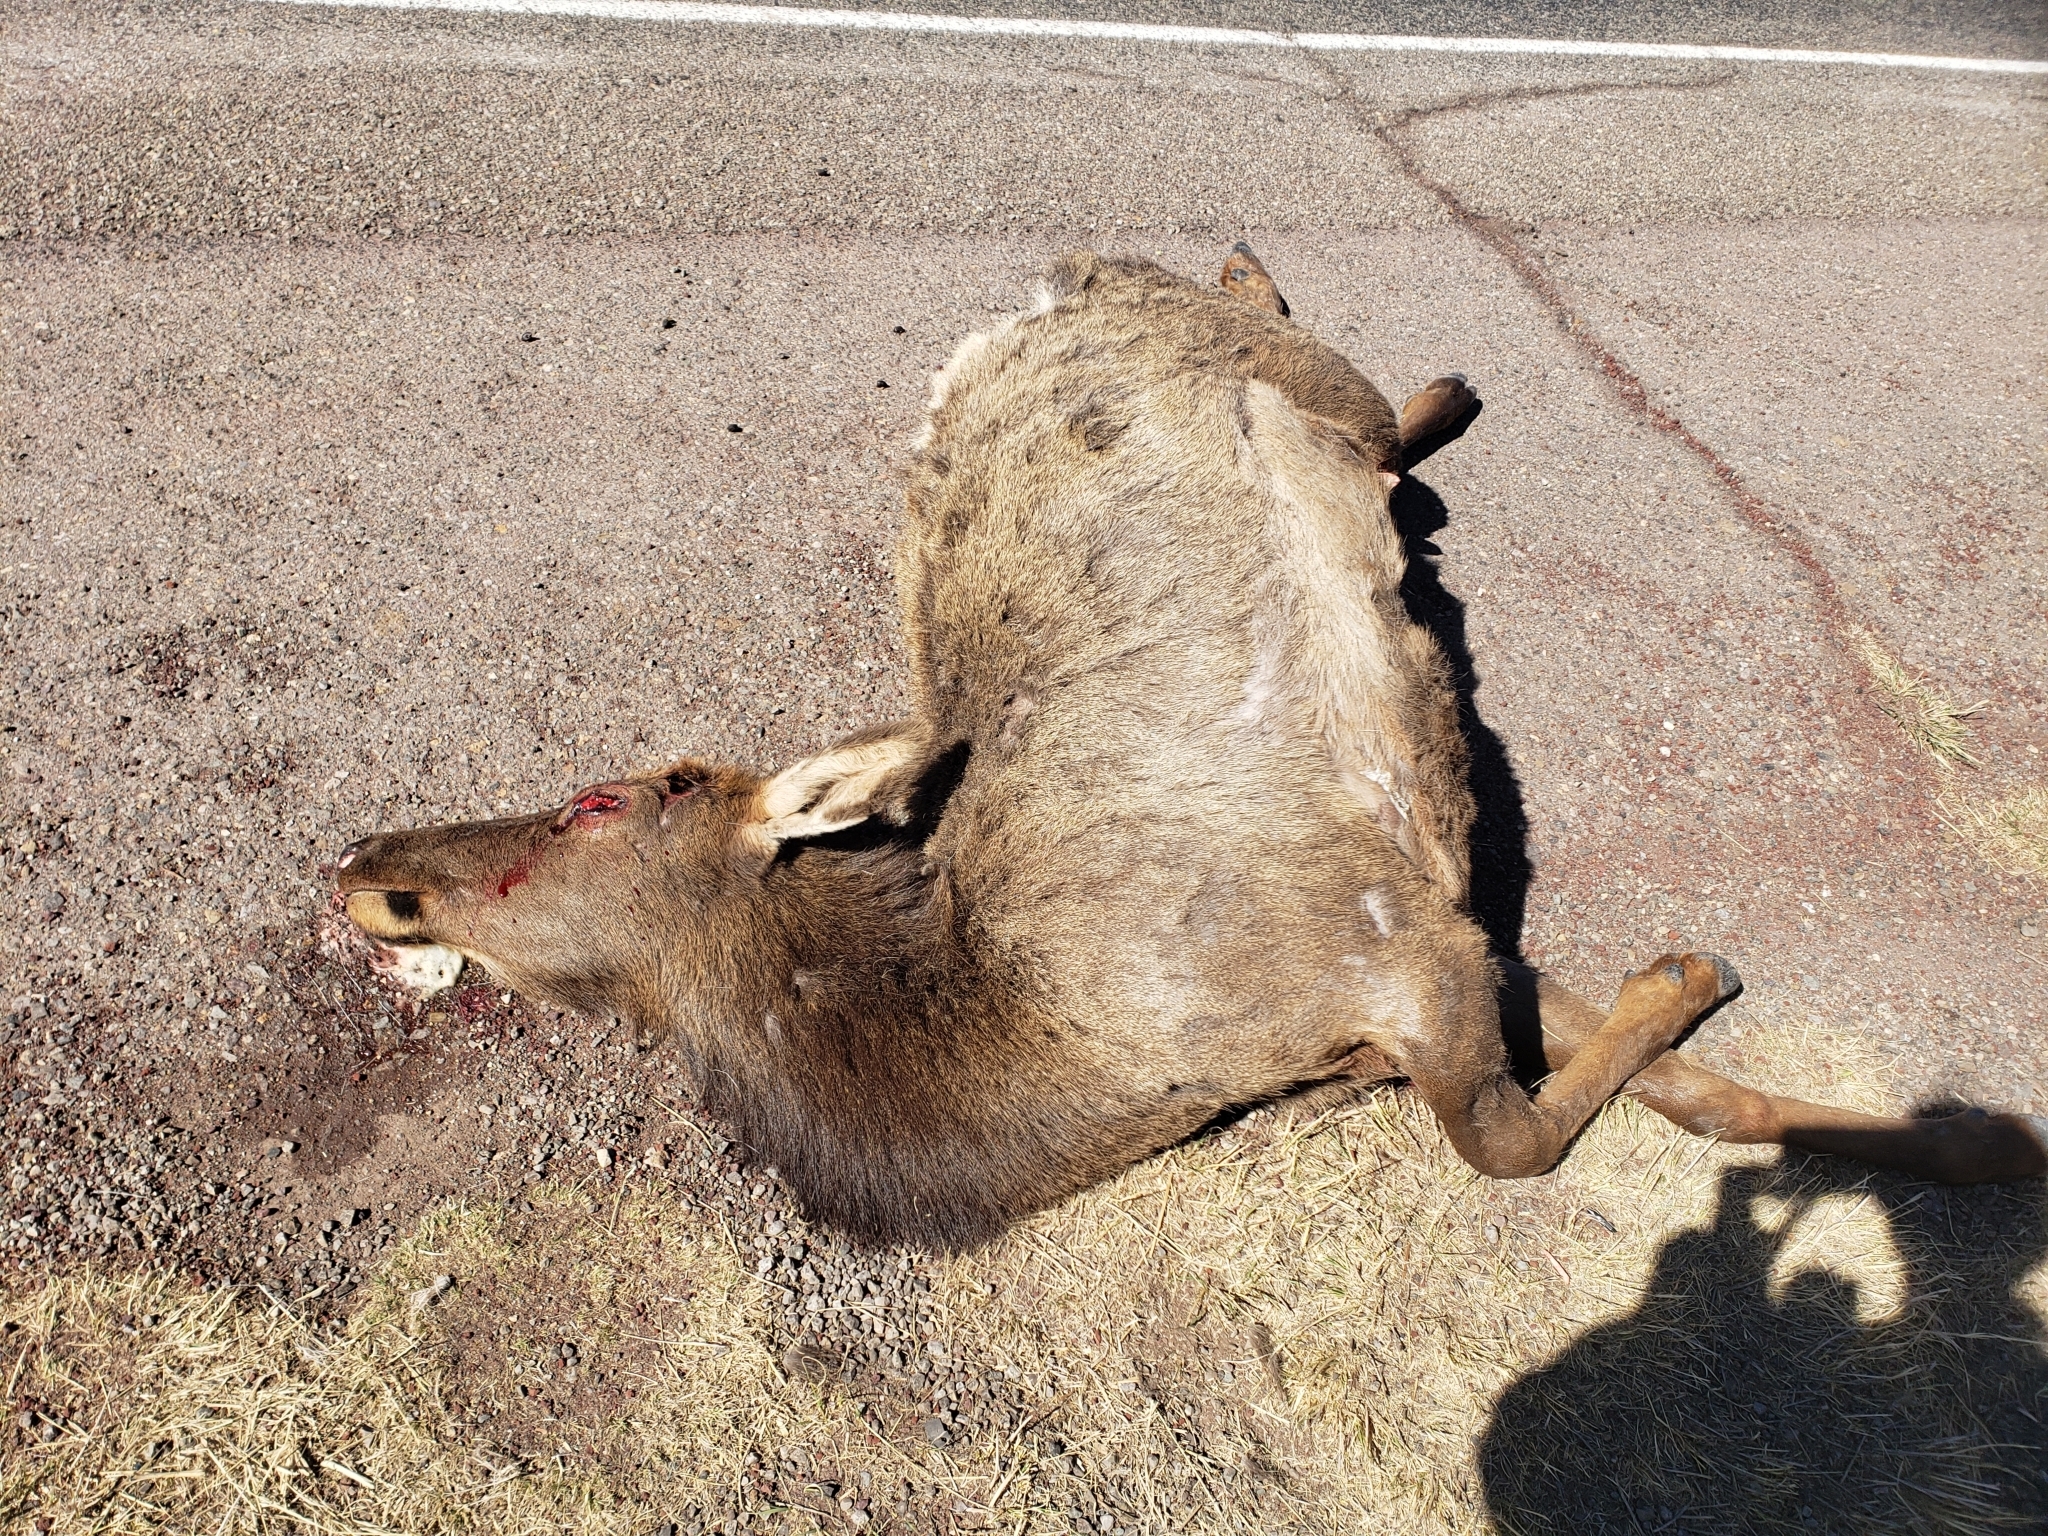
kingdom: Animalia
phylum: Chordata
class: Mammalia
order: Artiodactyla
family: Cervidae
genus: Cervus
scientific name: Cervus elaphus
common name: Red deer
